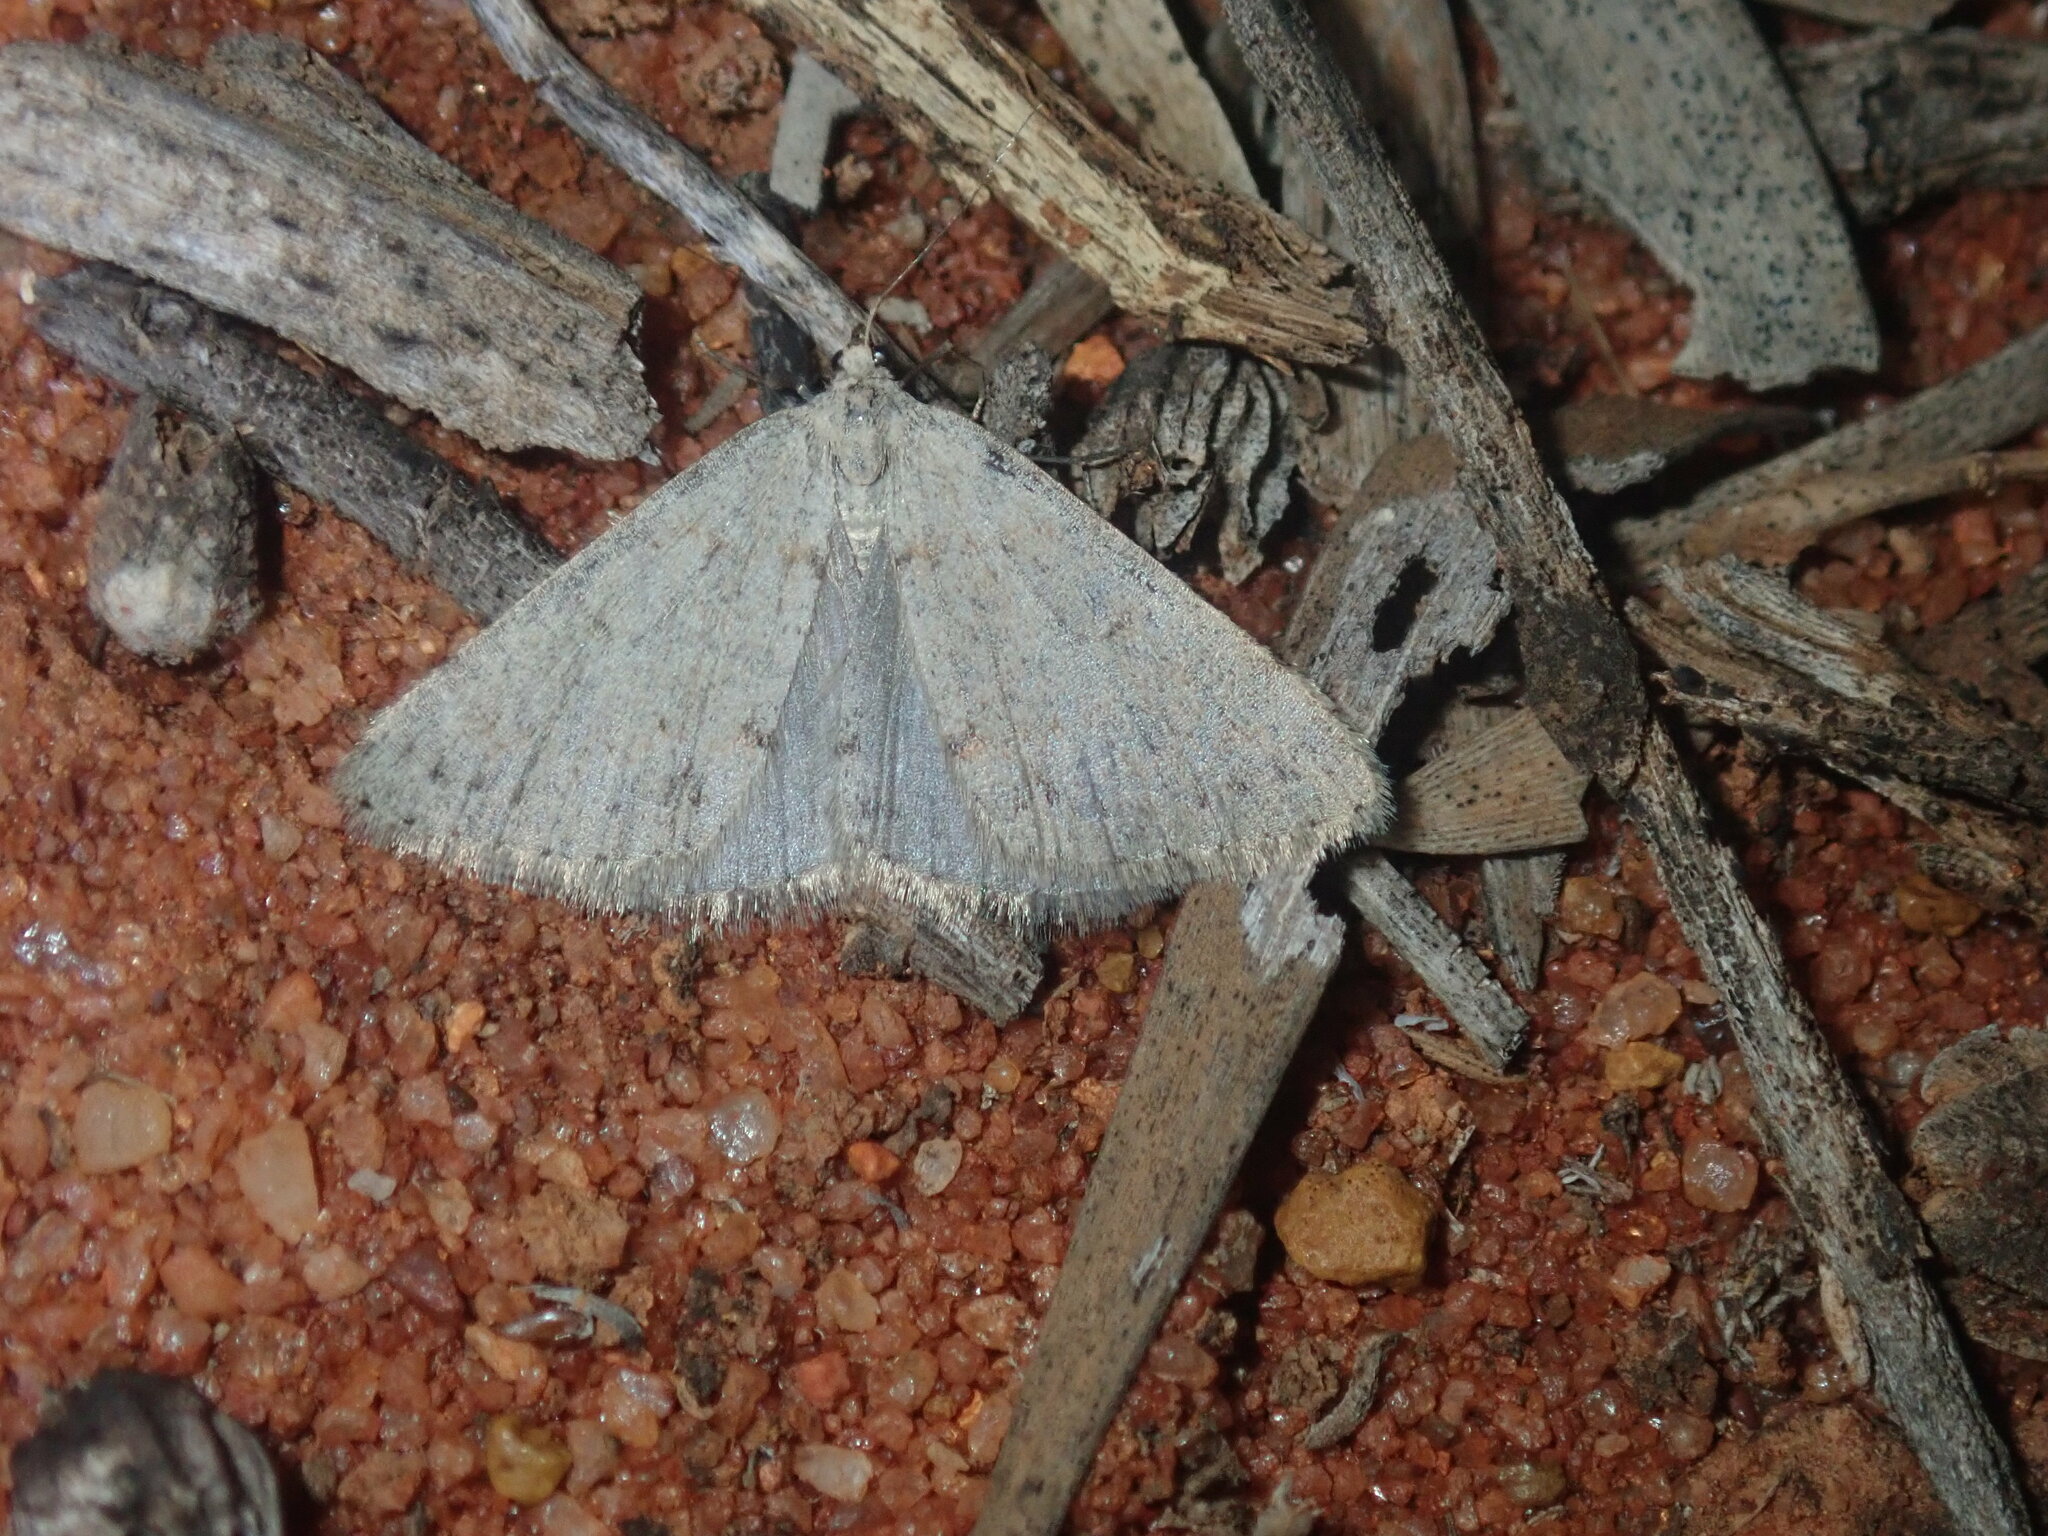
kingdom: Animalia
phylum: Arthropoda
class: Insecta
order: Lepidoptera
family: Geometridae
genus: Tapinogyna
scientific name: Tapinogyna perichroa
